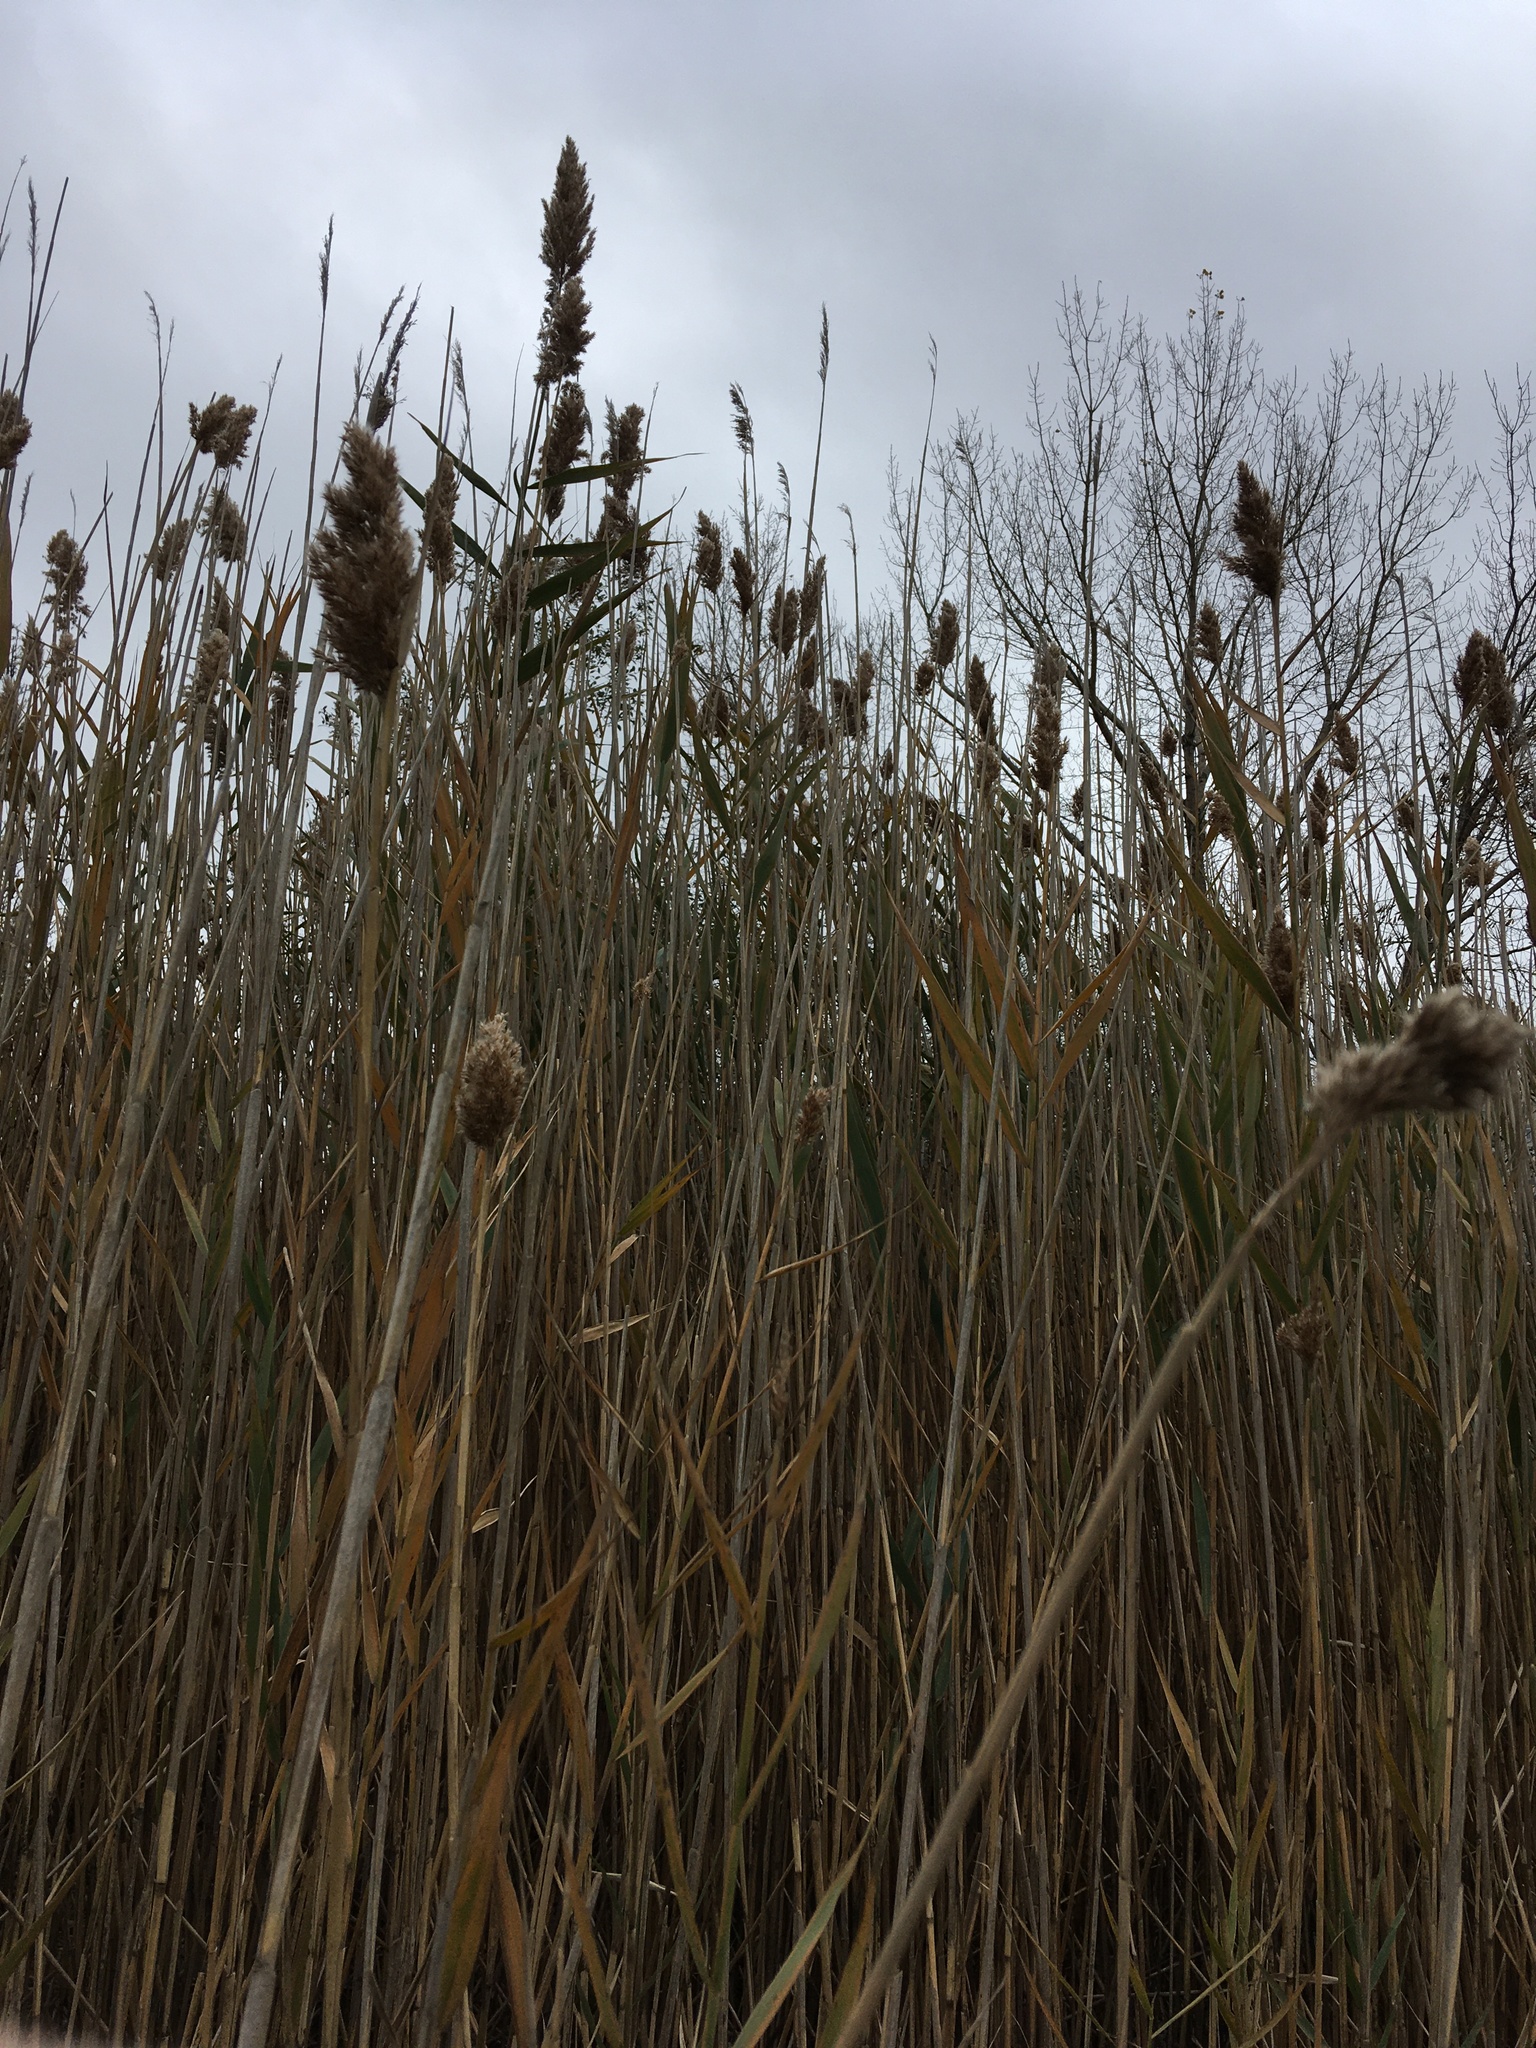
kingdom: Plantae
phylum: Tracheophyta
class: Liliopsida
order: Poales
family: Poaceae
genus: Phragmites
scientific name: Phragmites australis
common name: Common reed
